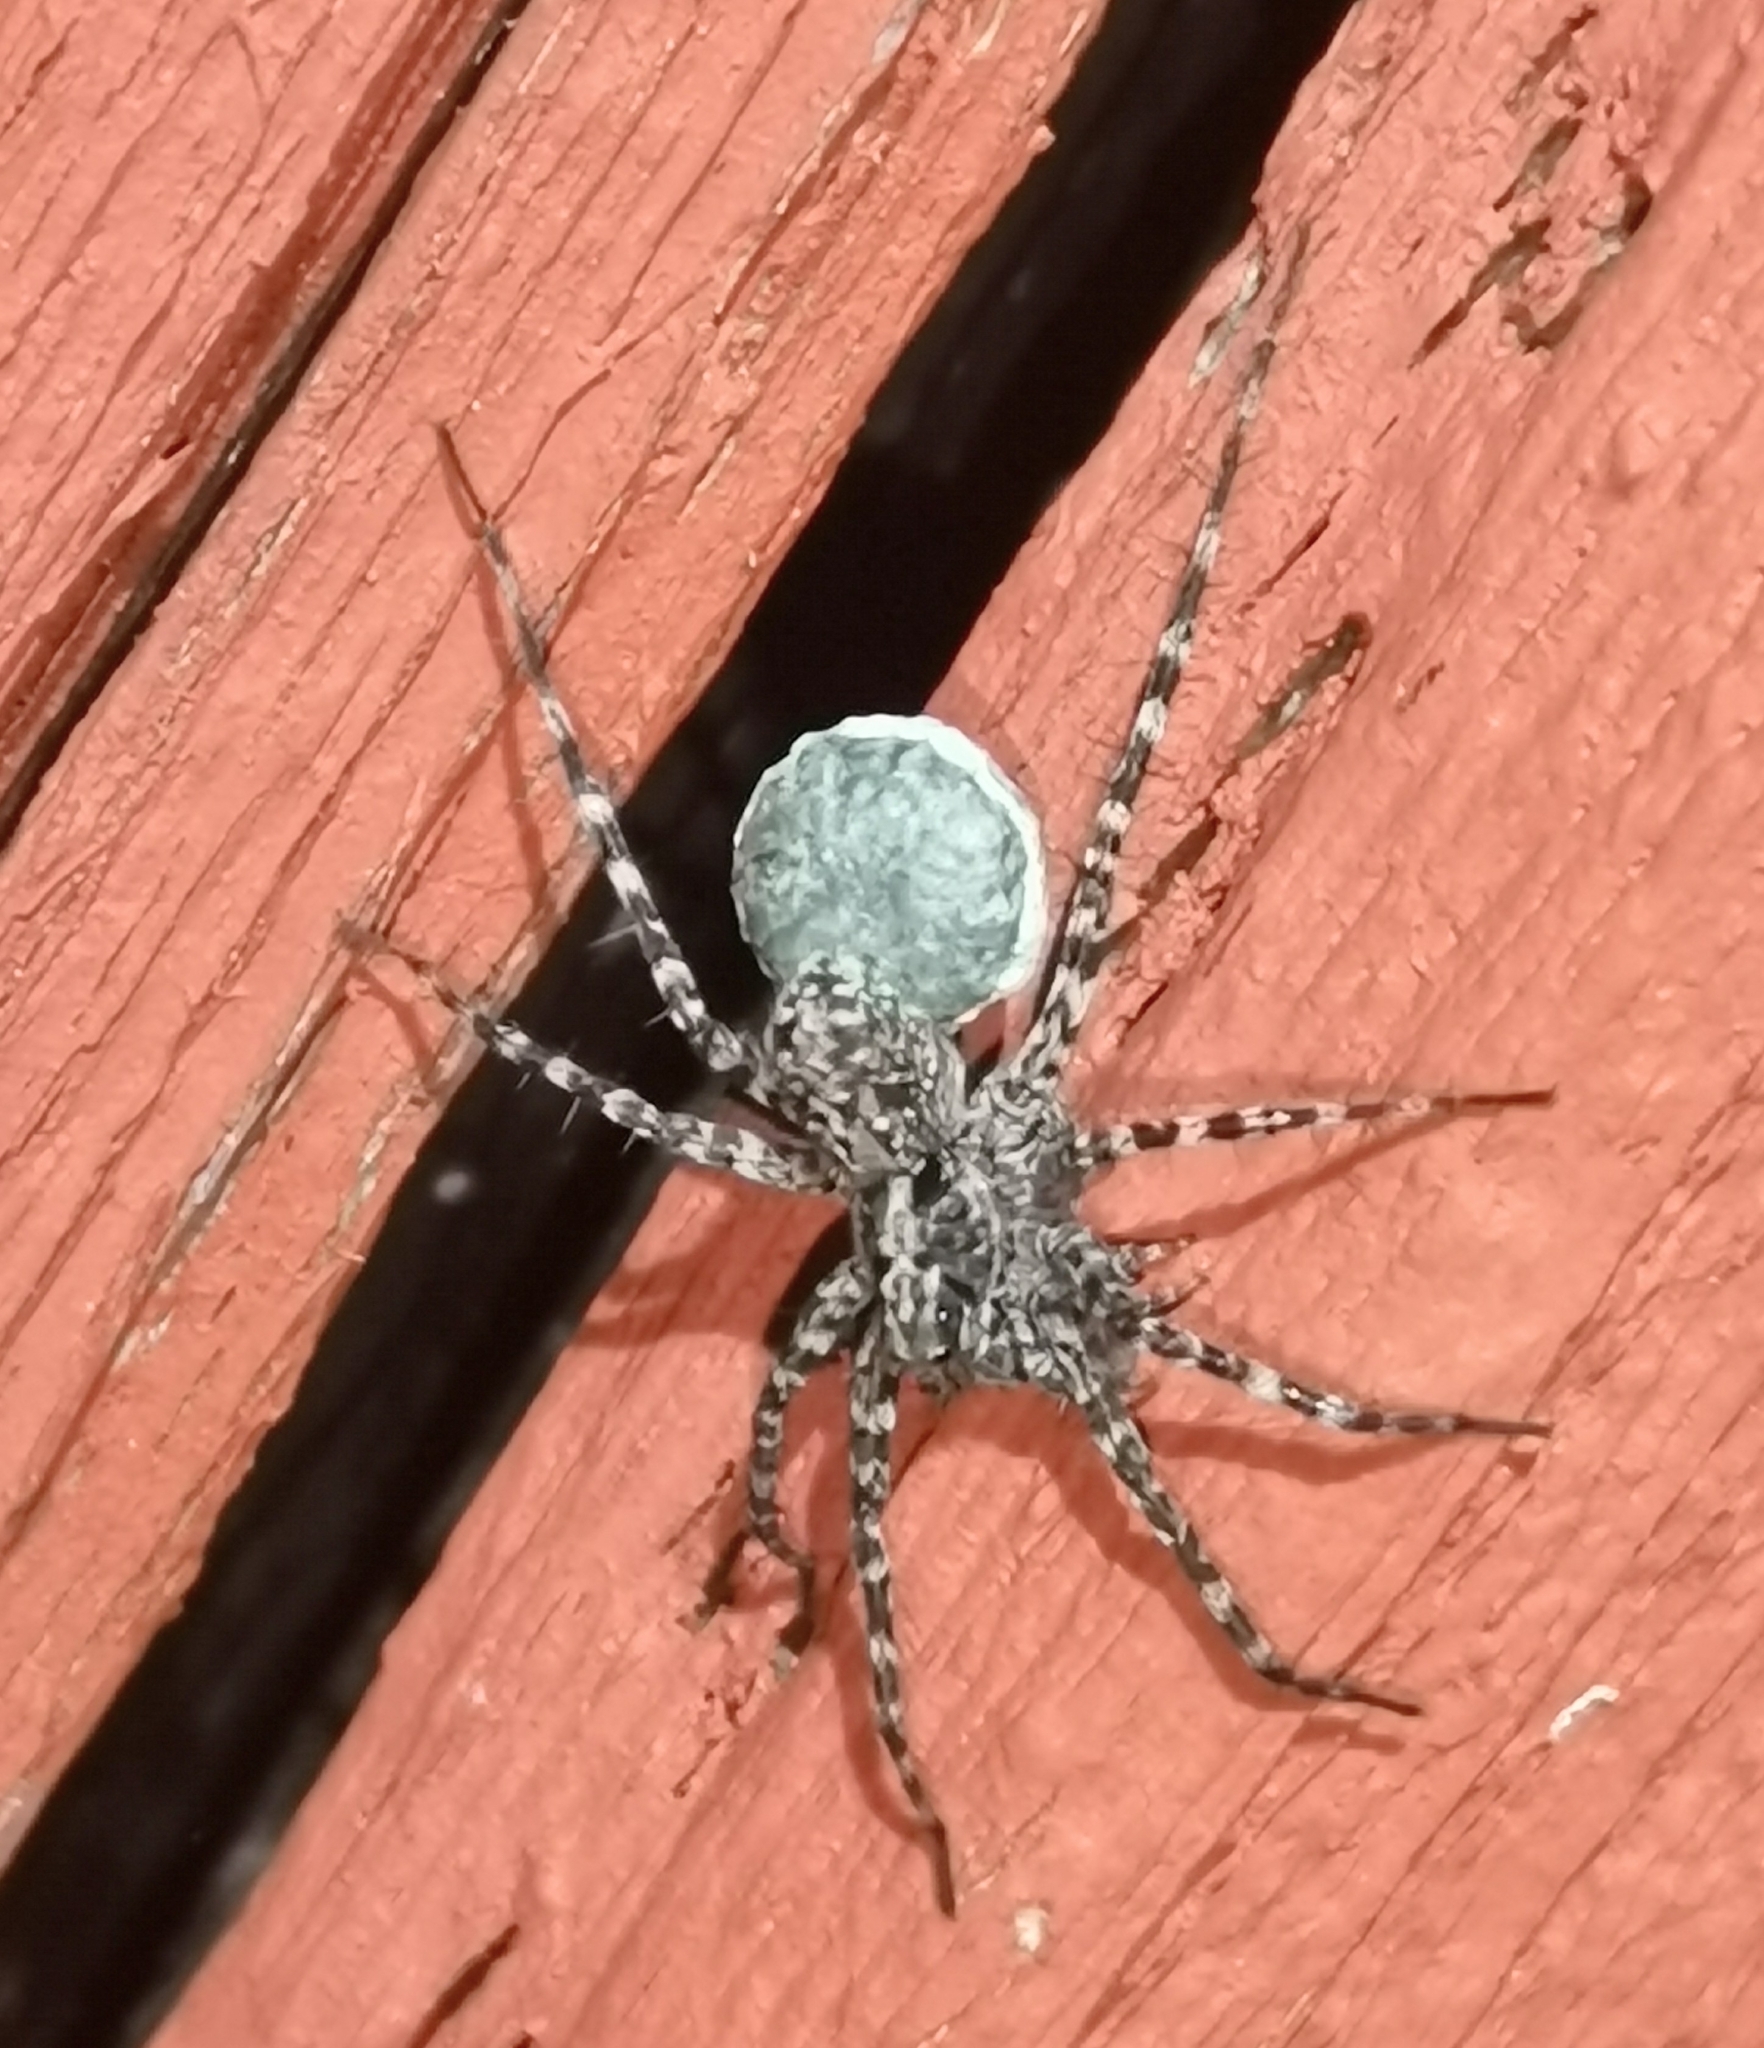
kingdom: Animalia
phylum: Arthropoda
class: Arachnida
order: Araneae
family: Lycosidae
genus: Acantholycosa
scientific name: Acantholycosa lignaria
